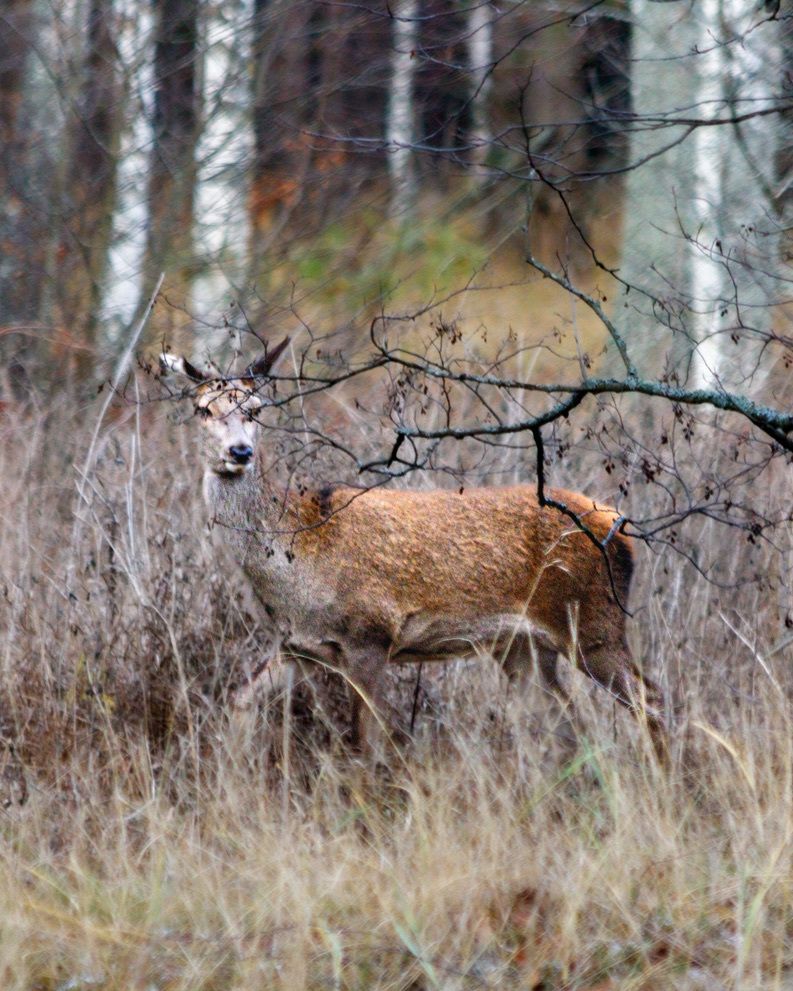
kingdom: Animalia
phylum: Chordata
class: Mammalia
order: Artiodactyla
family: Cervidae
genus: Cervus
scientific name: Cervus elaphus
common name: Red deer
